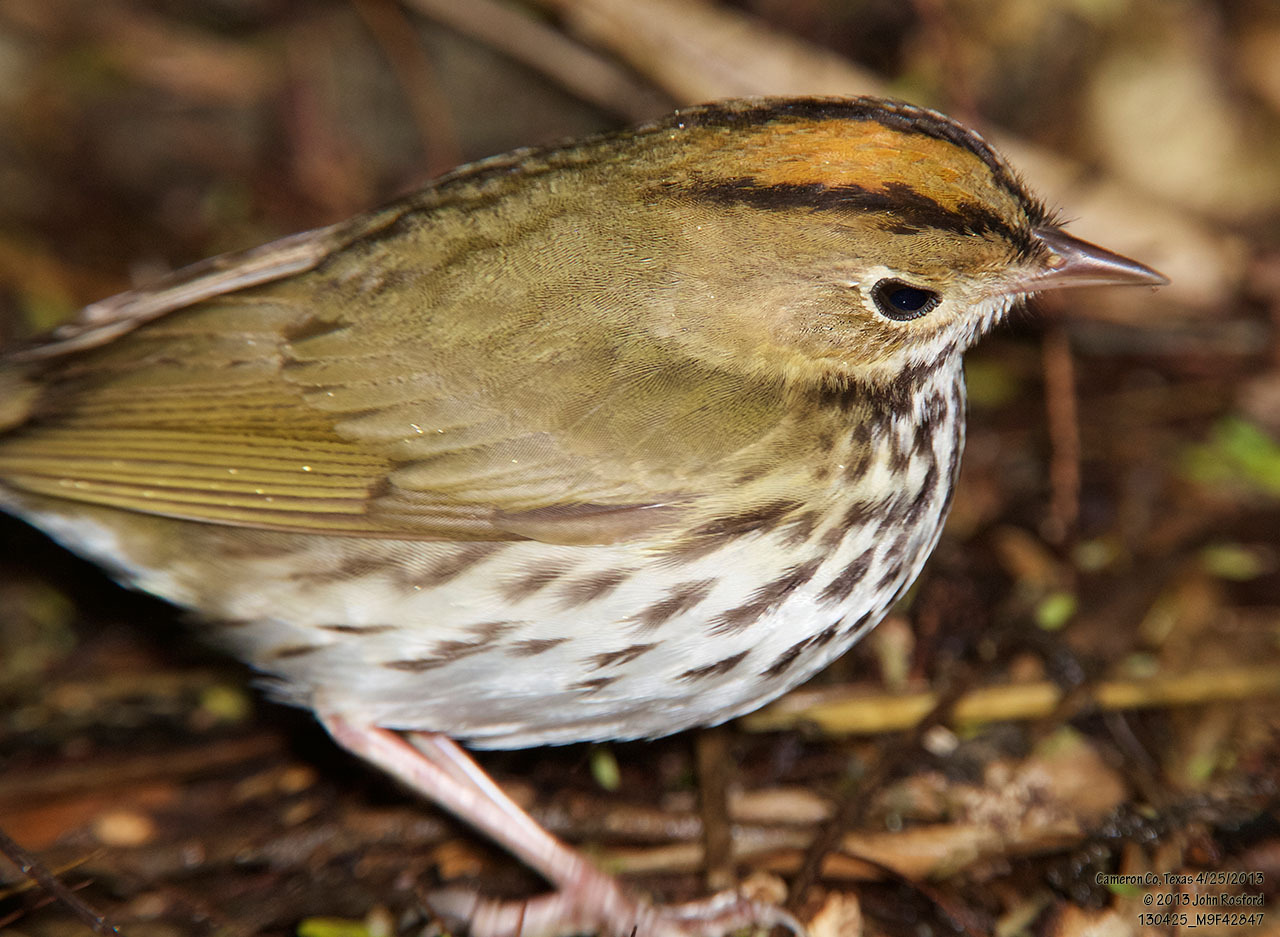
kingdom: Animalia
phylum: Chordata
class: Aves
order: Passeriformes
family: Parulidae
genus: Seiurus
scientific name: Seiurus aurocapilla
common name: Ovenbird
